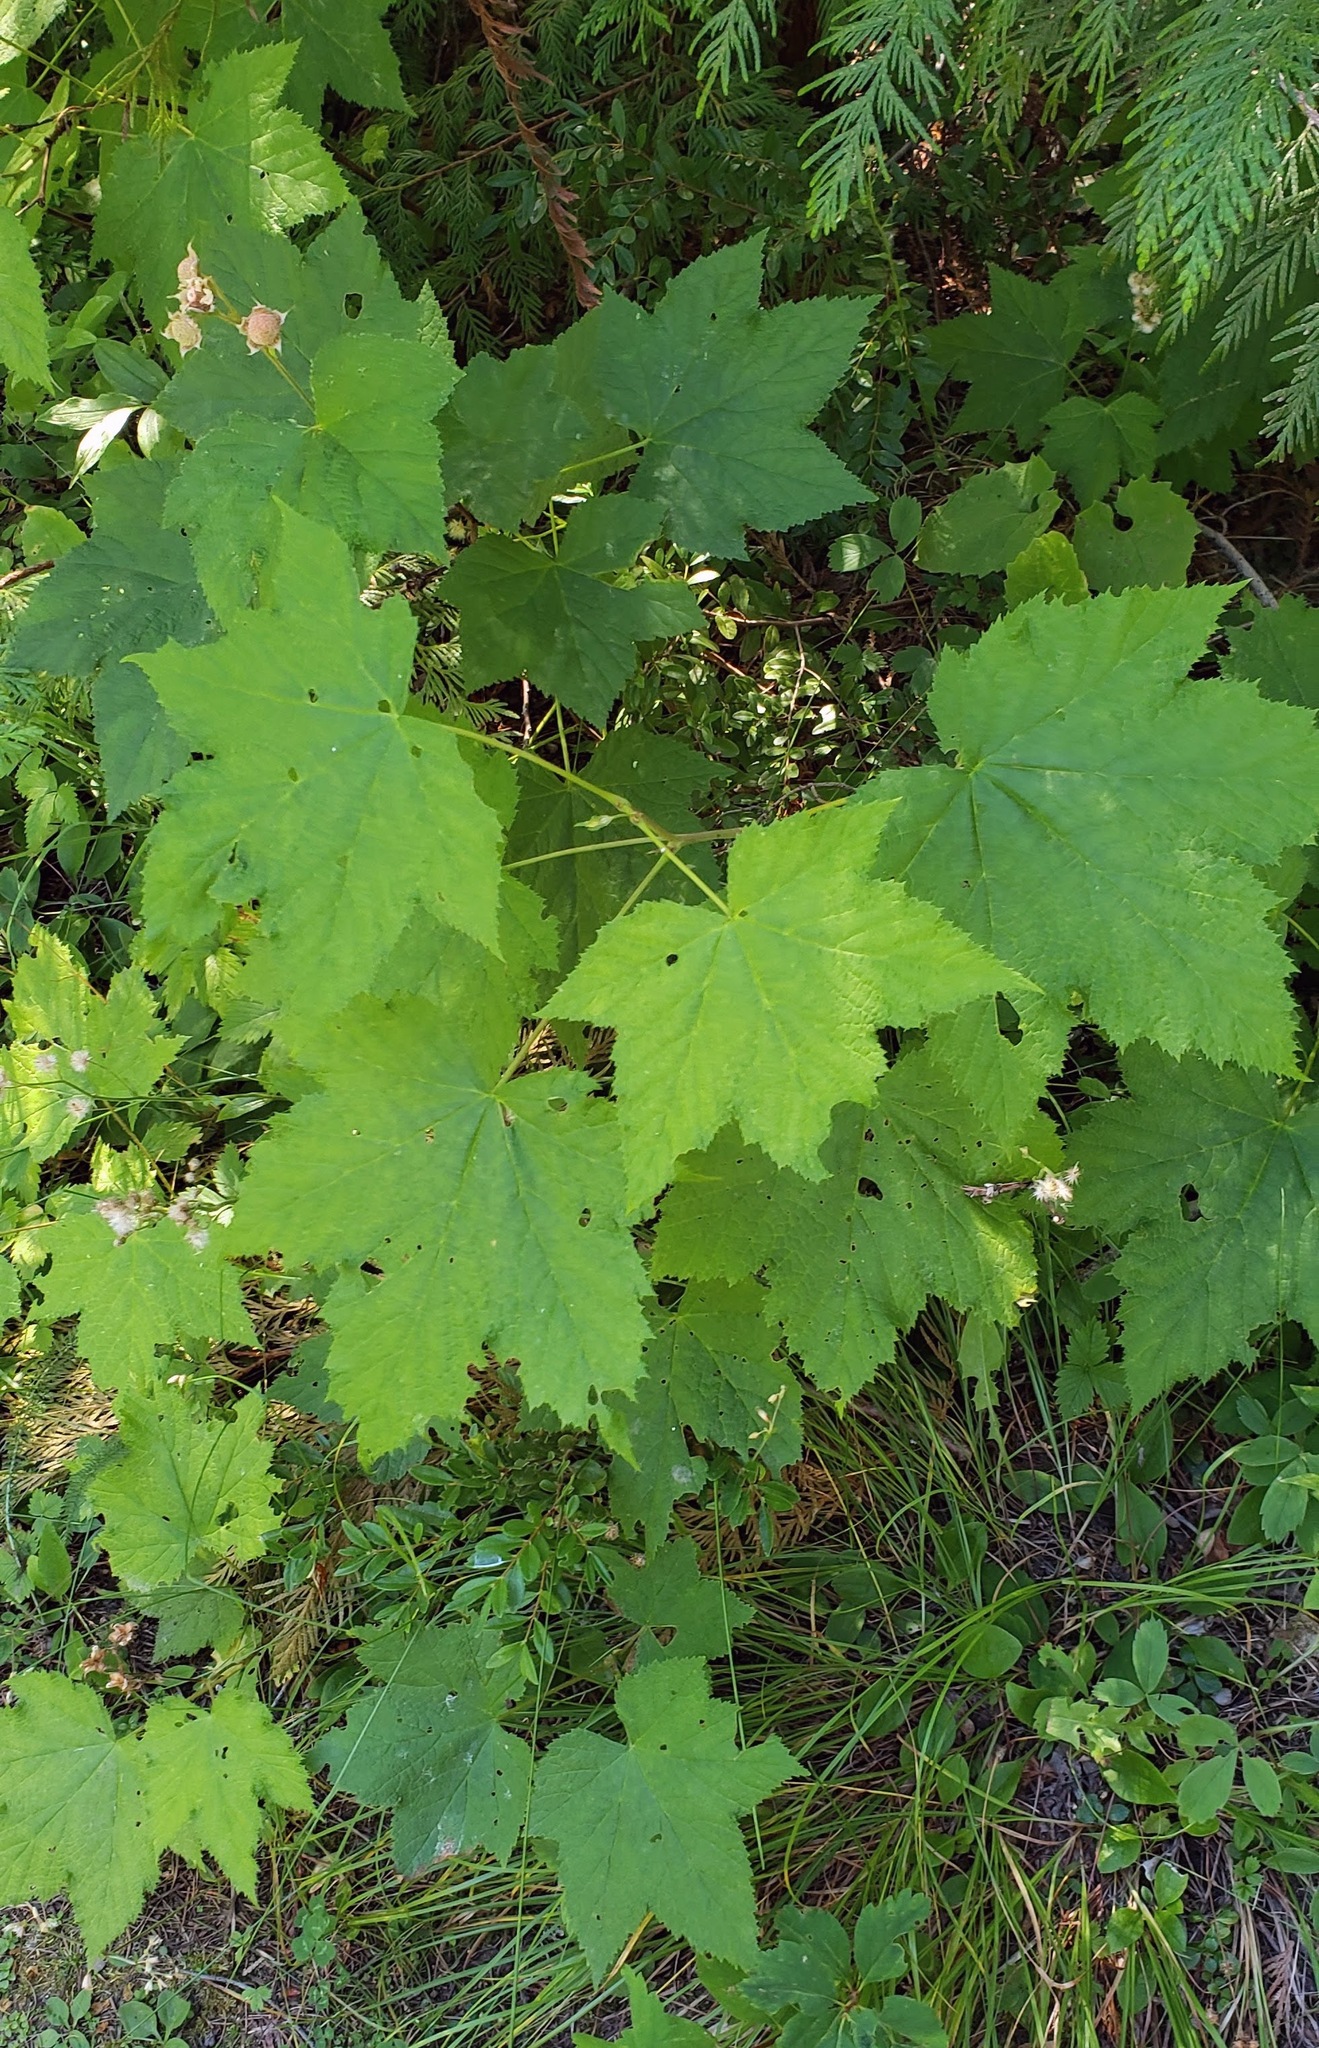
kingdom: Plantae
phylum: Tracheophyta
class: Magnoliopsida
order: Rosales
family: Rosaceae
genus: Rubus
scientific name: Rubus parviflorus
